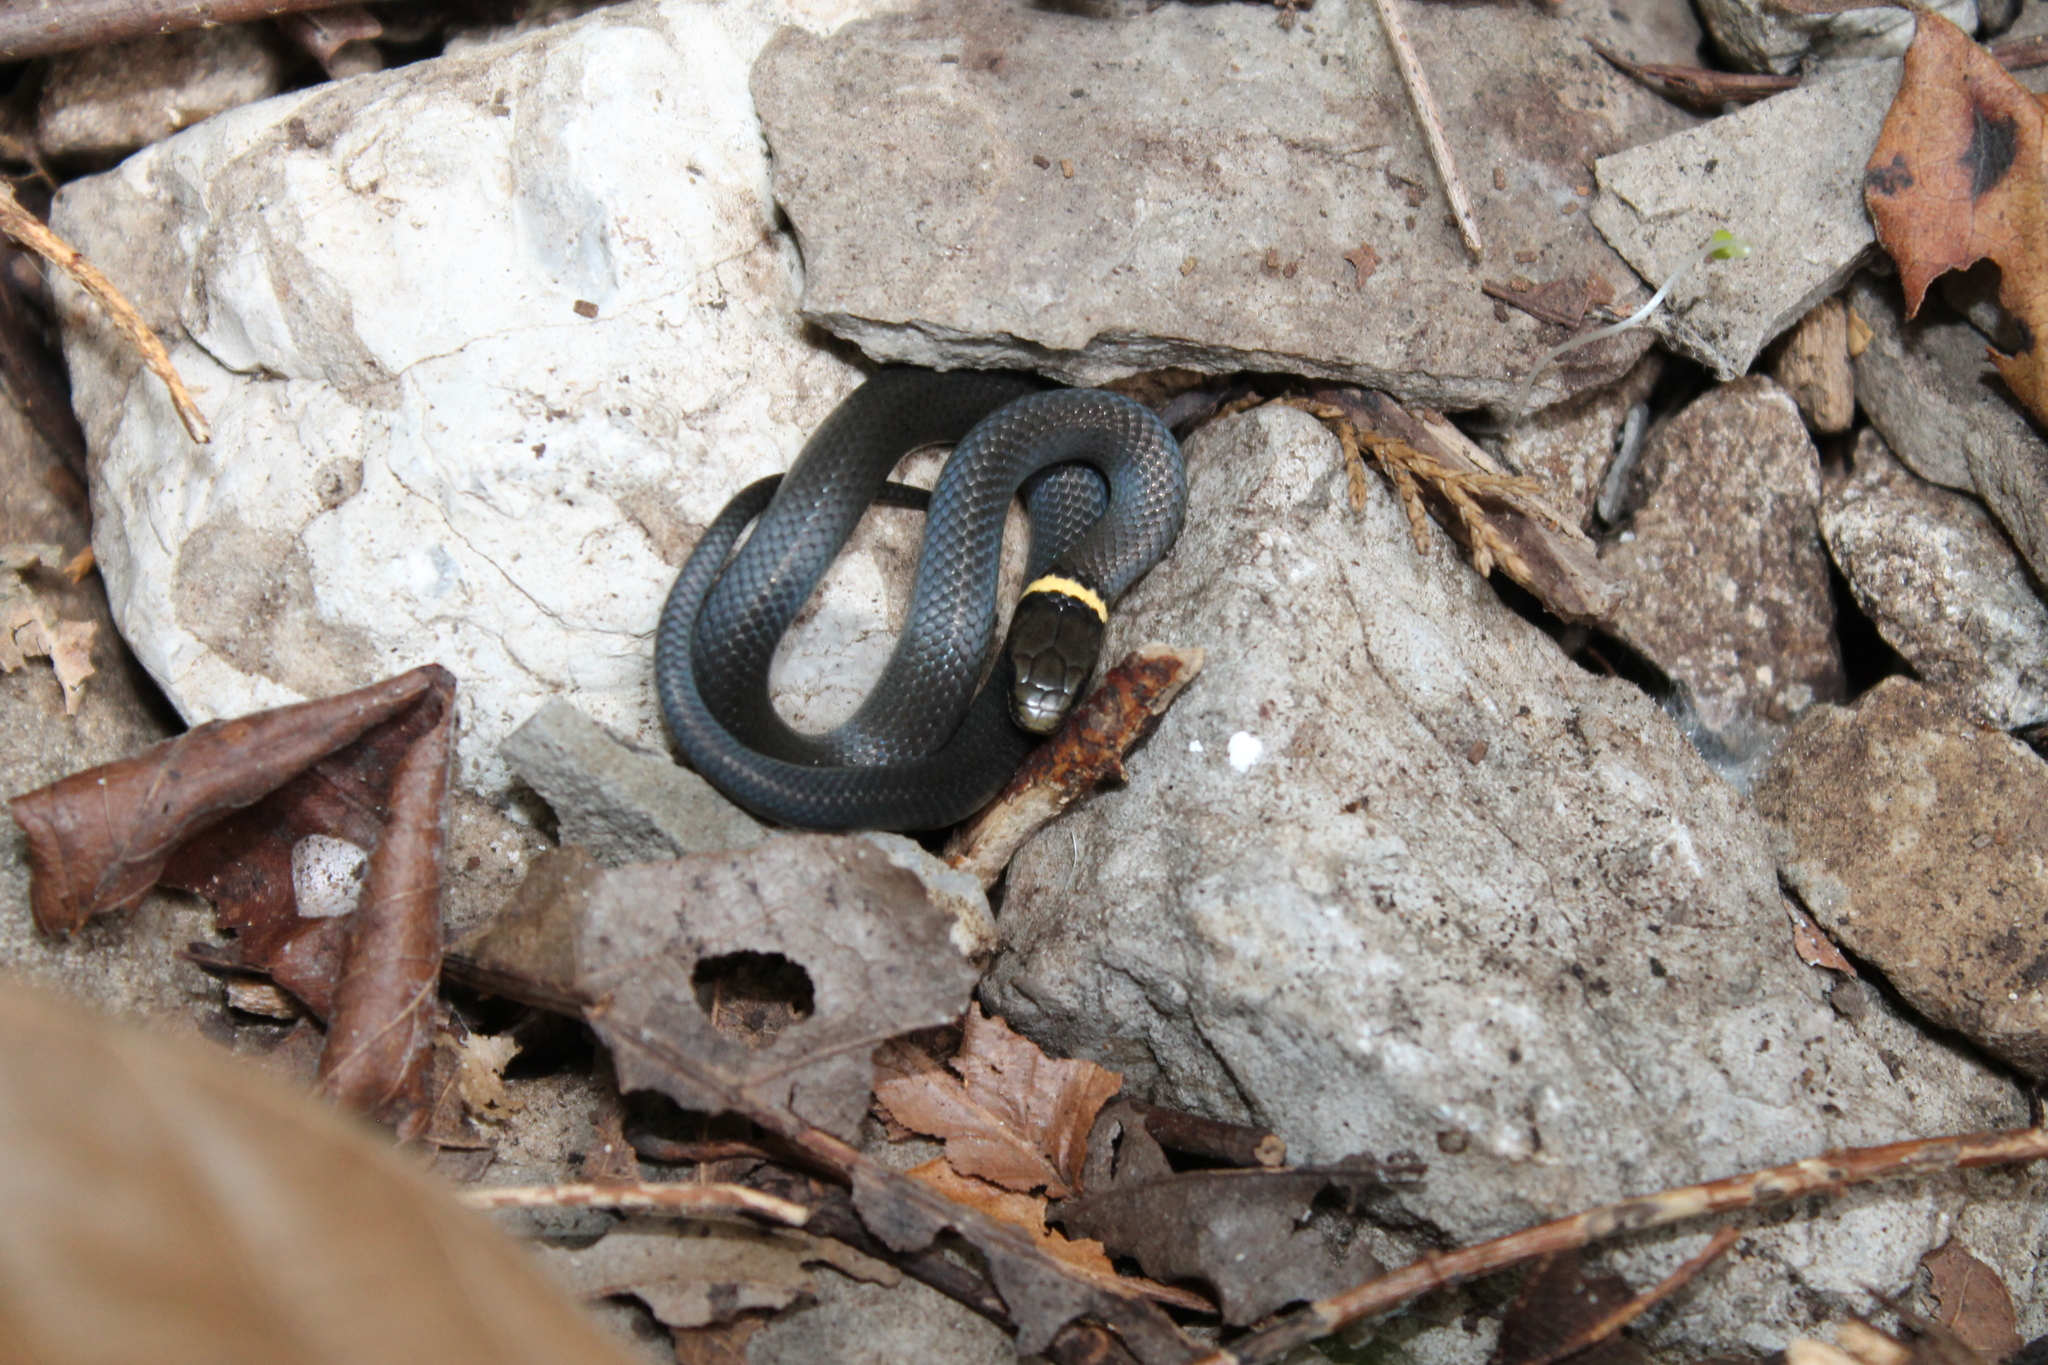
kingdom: Animalia
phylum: Chordata
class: Squamata
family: Colubridae
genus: Diadophis
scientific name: Diadophis punctatus
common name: Ringneck snake
